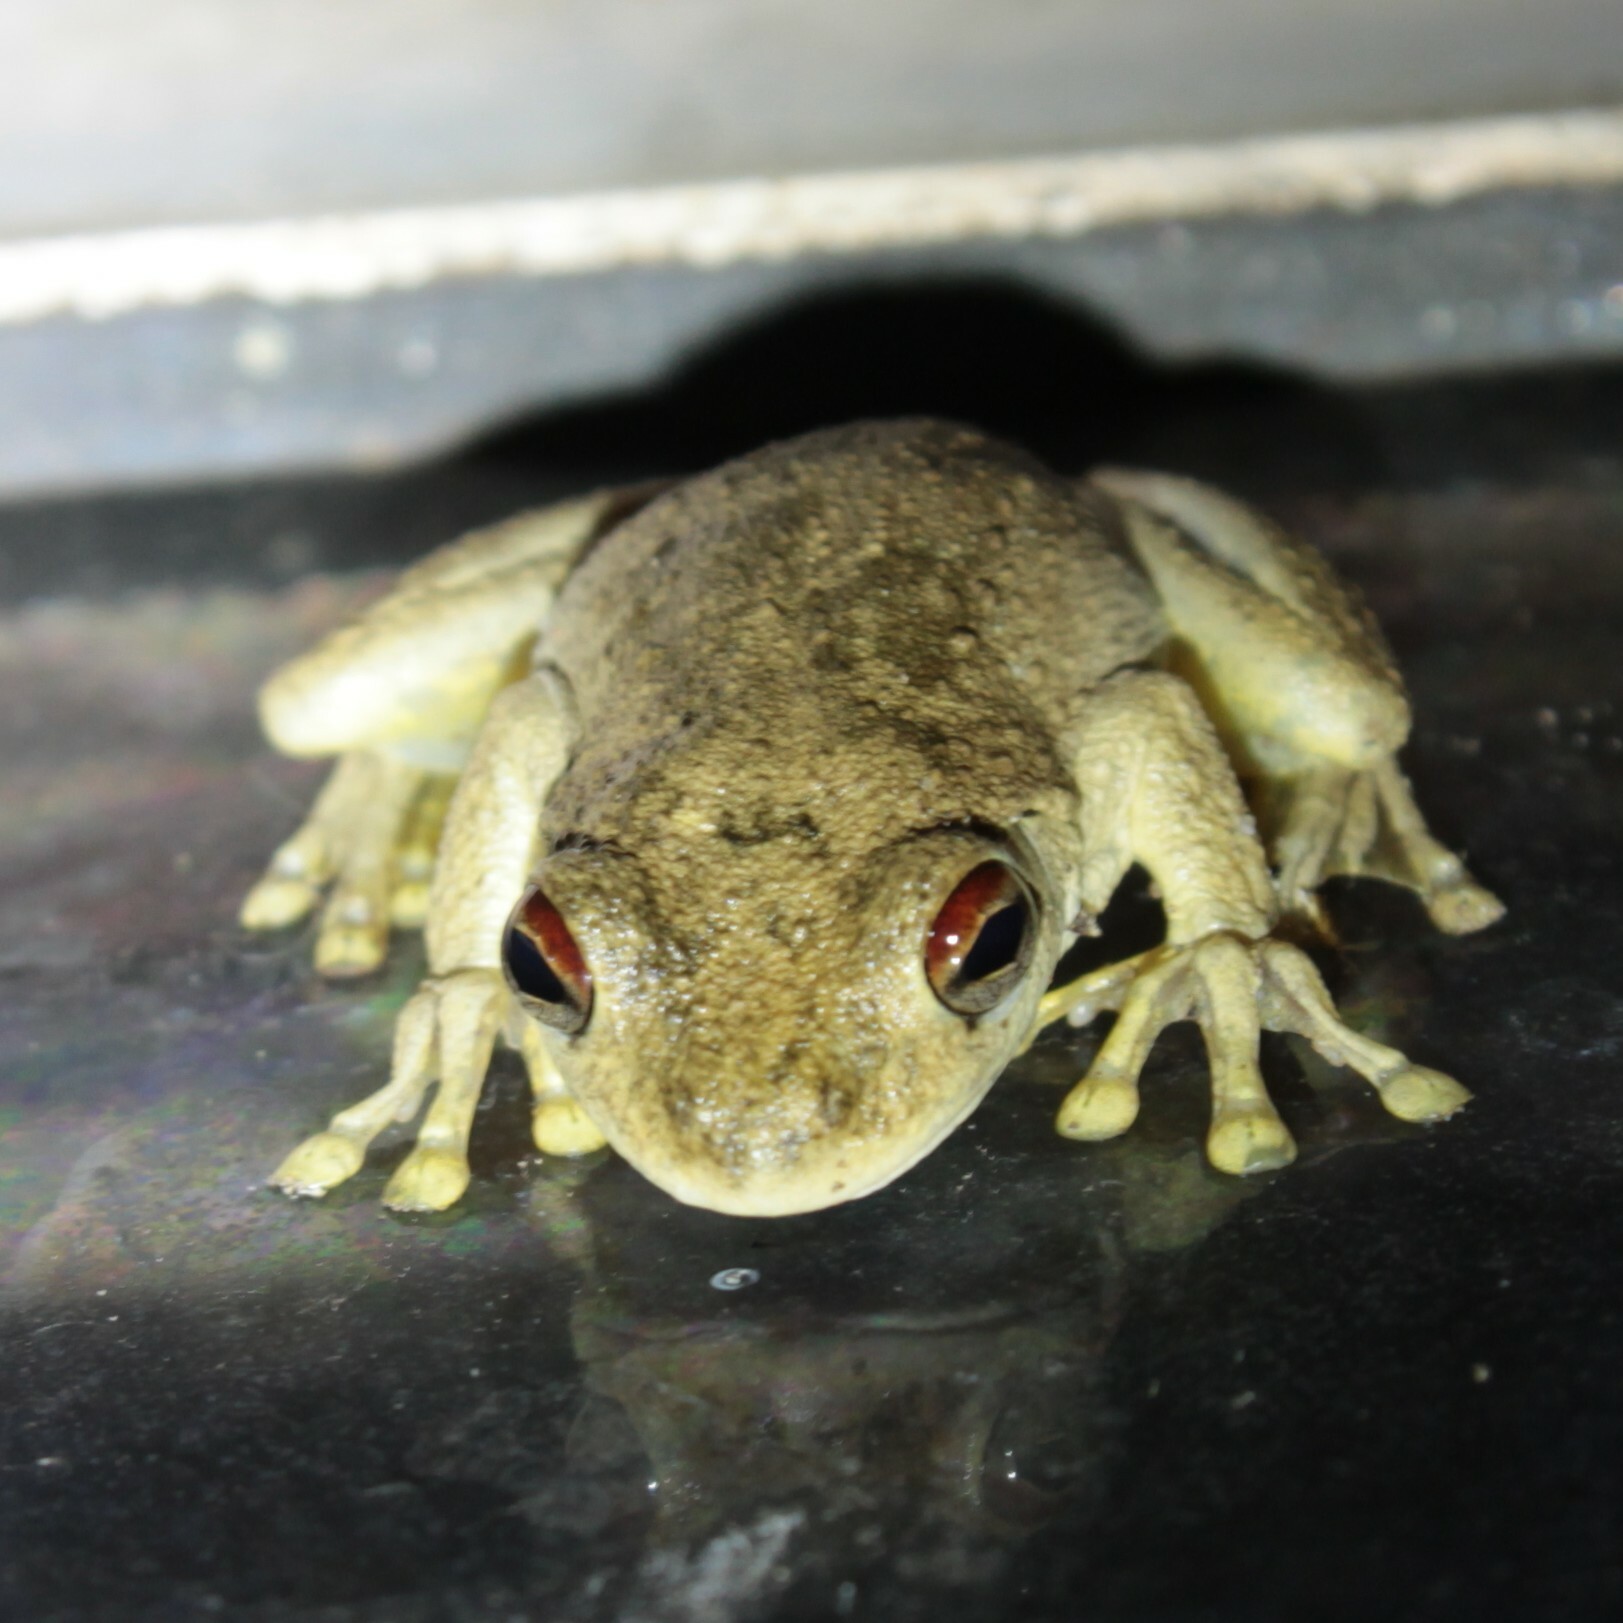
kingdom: Animalia
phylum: Chordata
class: Amphibia
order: Anura
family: Pelodryadidae
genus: Litoria
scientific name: Litoria
